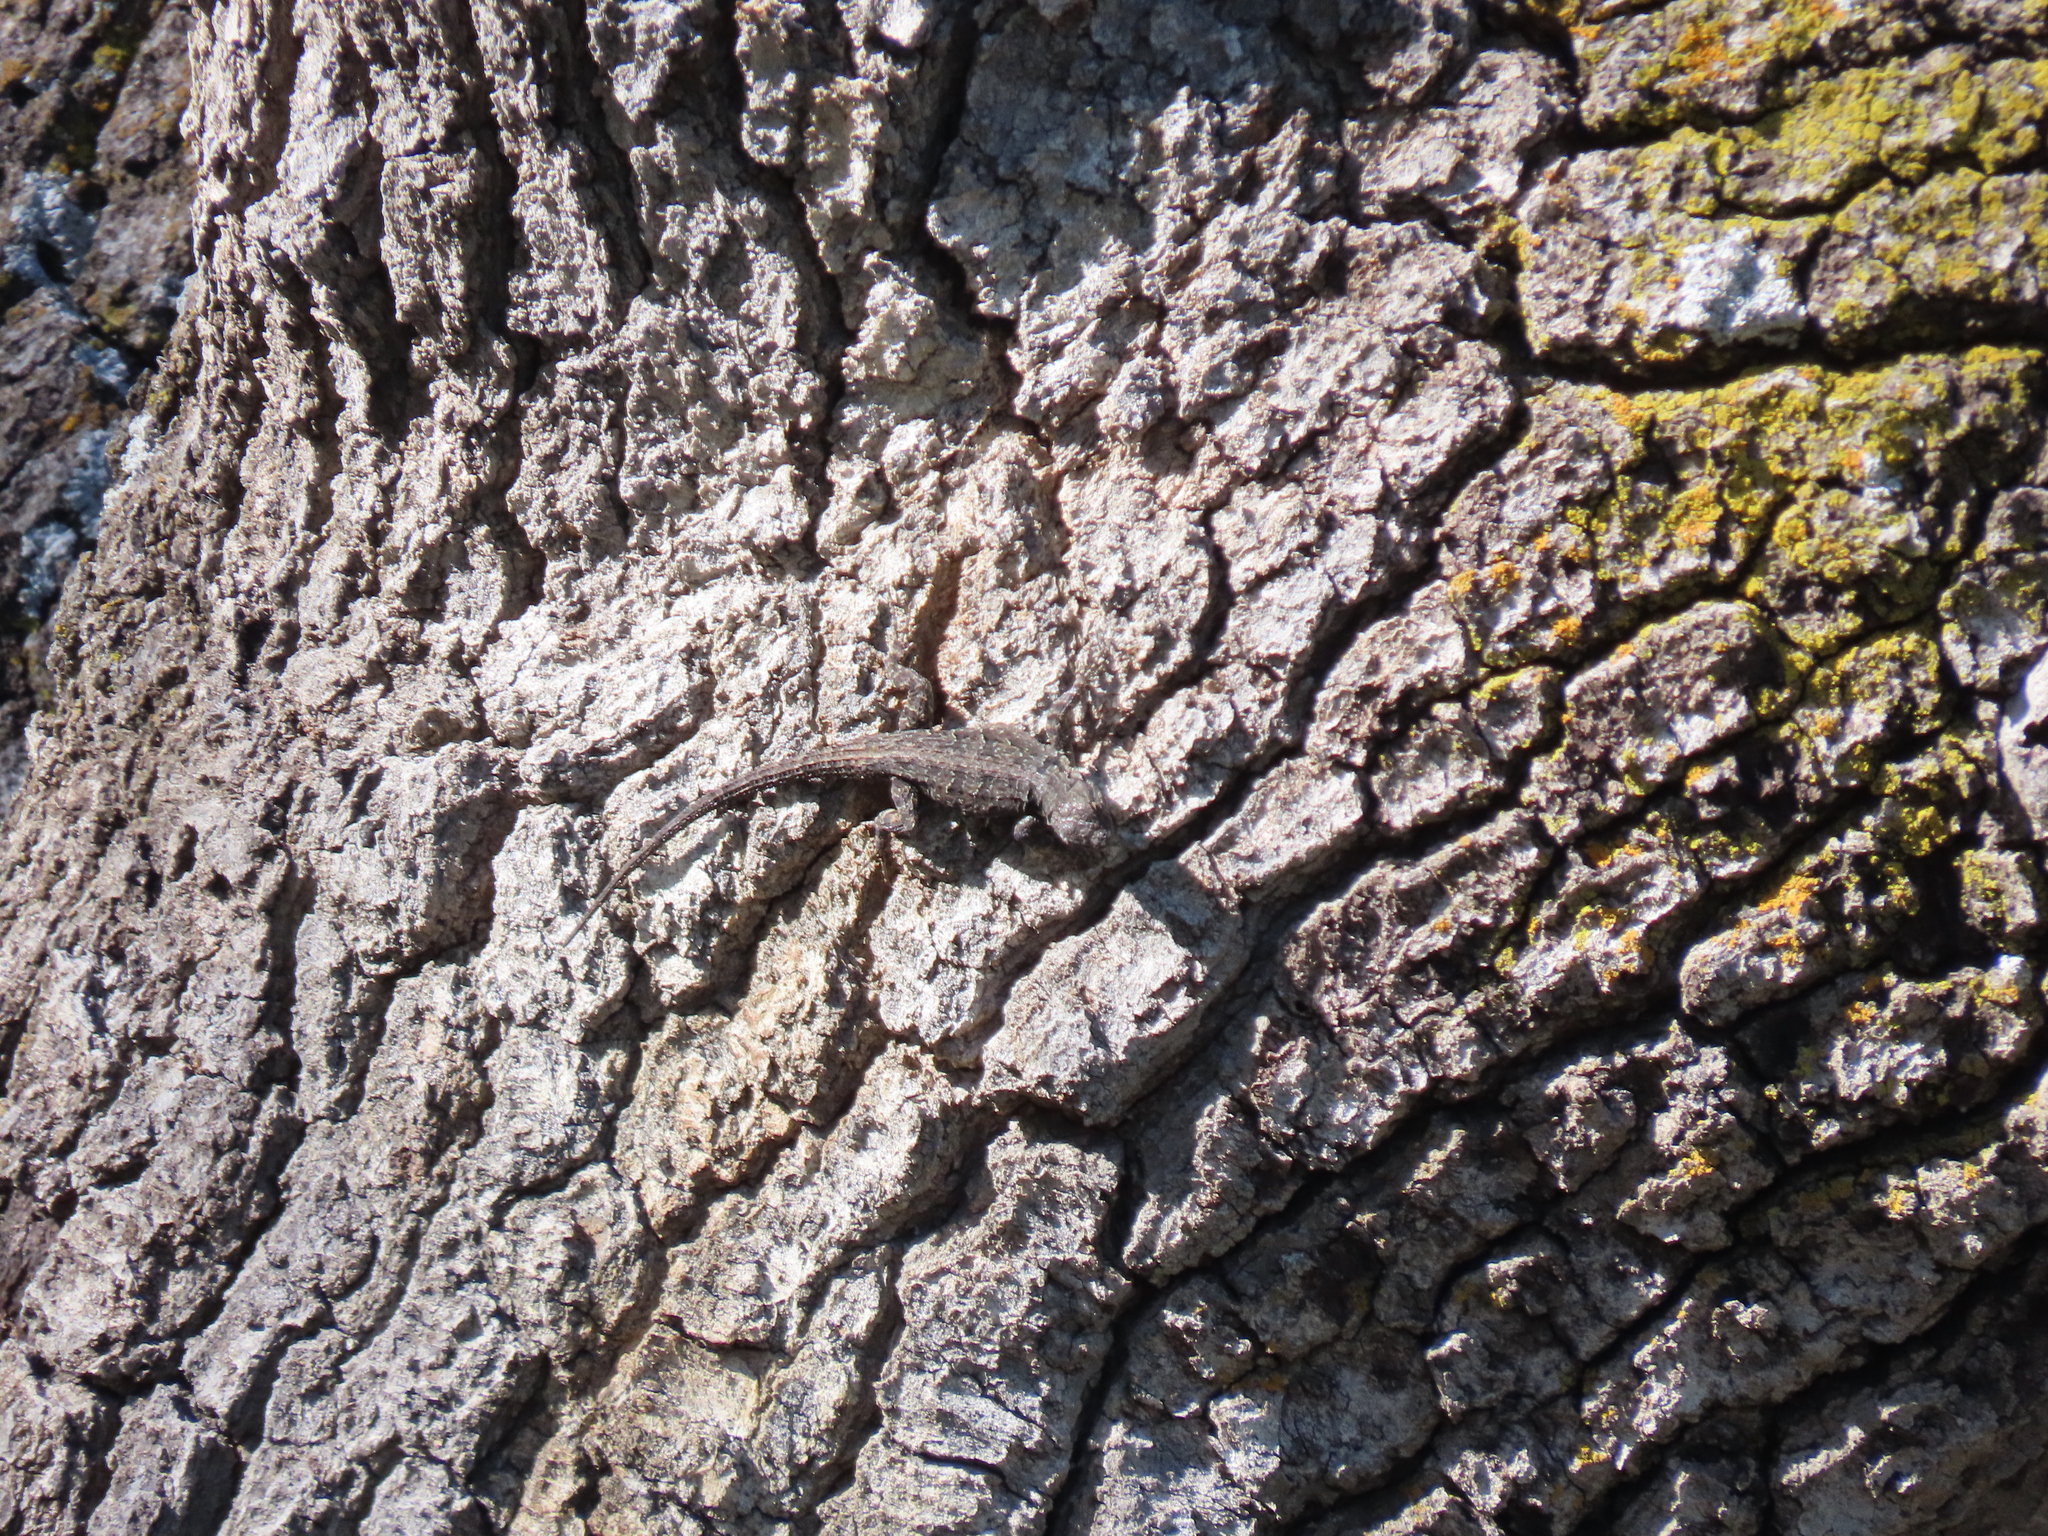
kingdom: Animalia
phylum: Chordata
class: Squamata
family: Phrynosomatidae
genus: Urosaurus
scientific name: Urosaurus ornatus
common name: Ornate tree lizard
